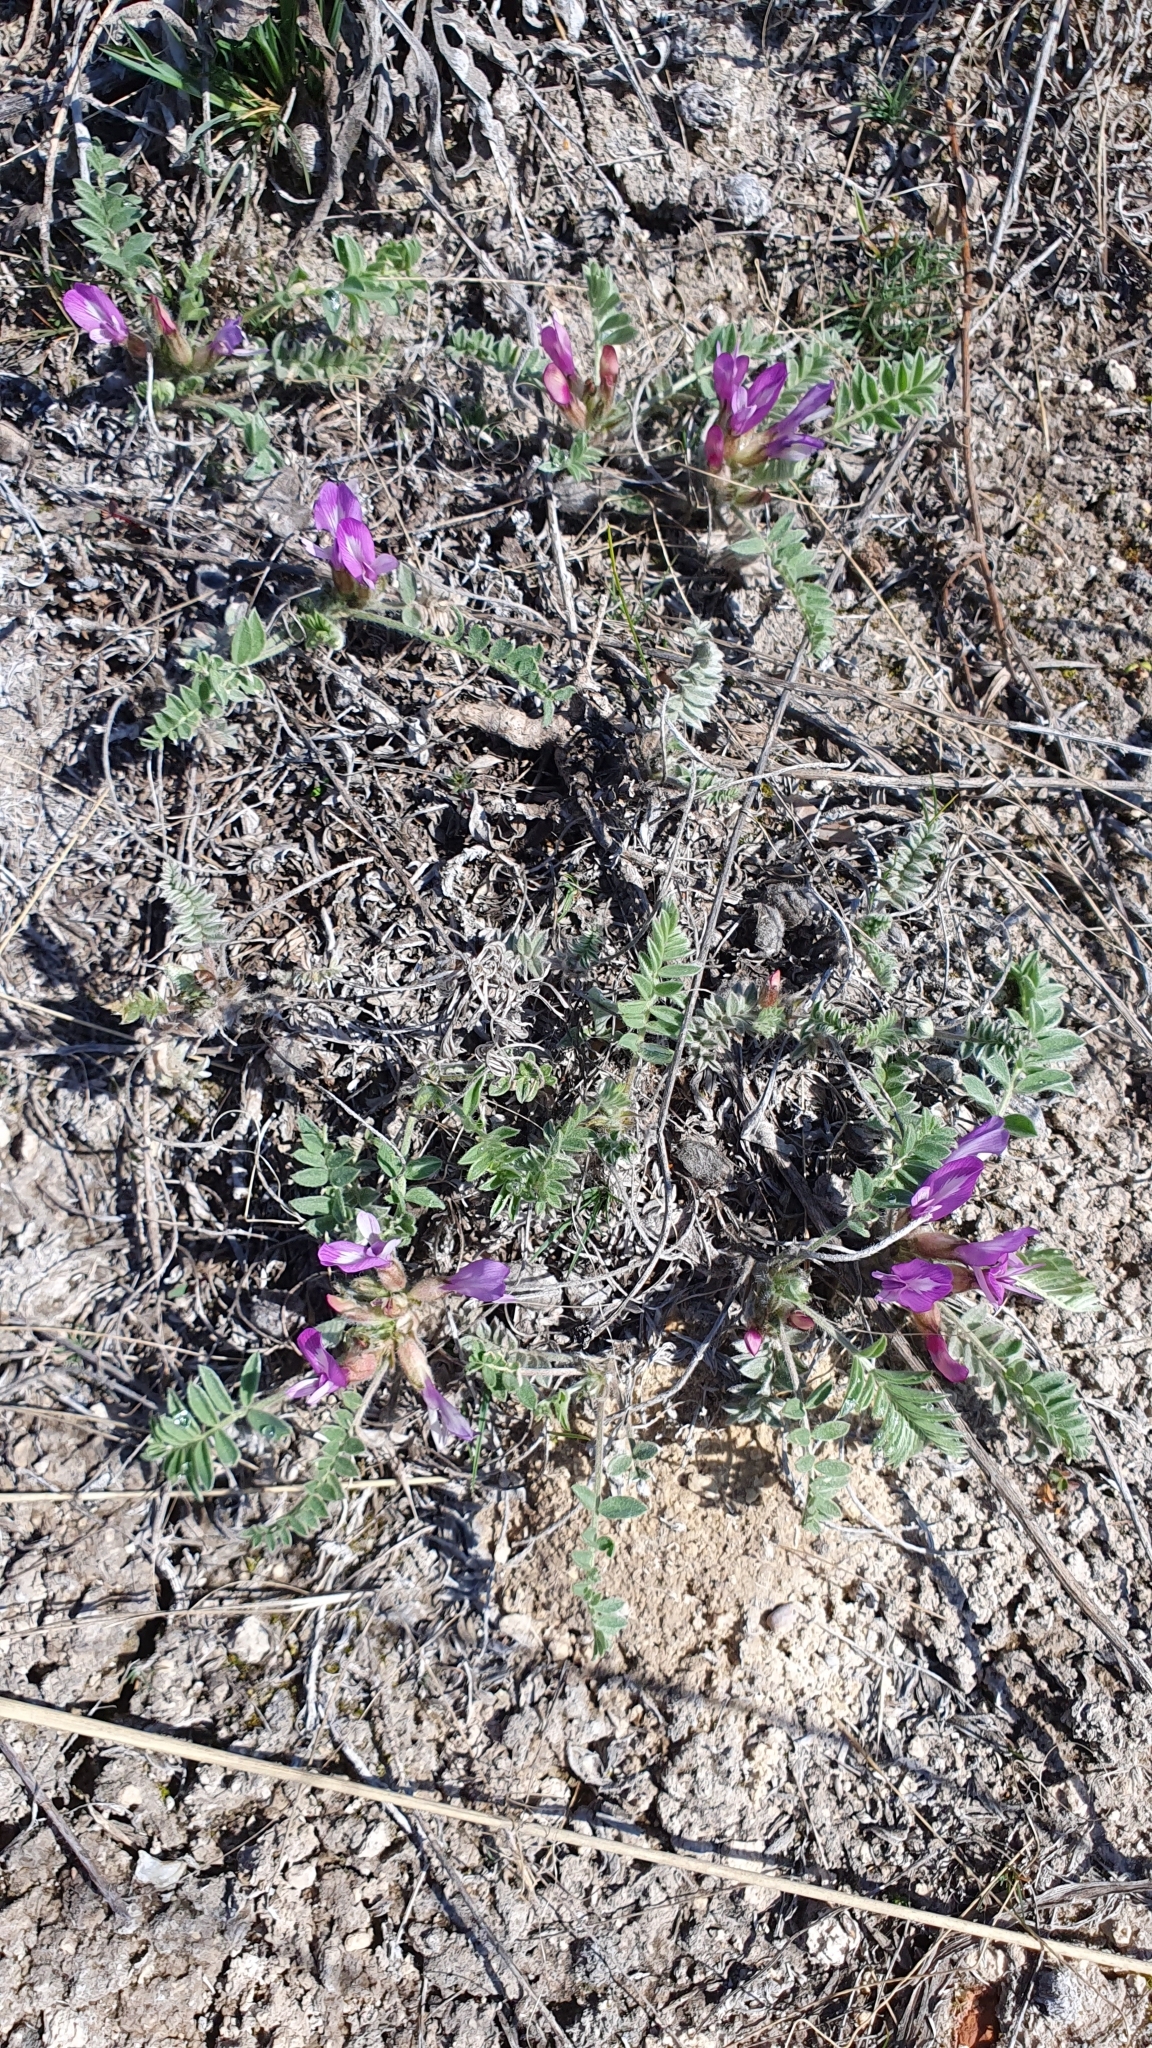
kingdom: Plantae
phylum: Tracheophyta
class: Magnoliopsida
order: Fabales
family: Fabaceae
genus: Astragalus
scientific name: Astragalus testiculatus
